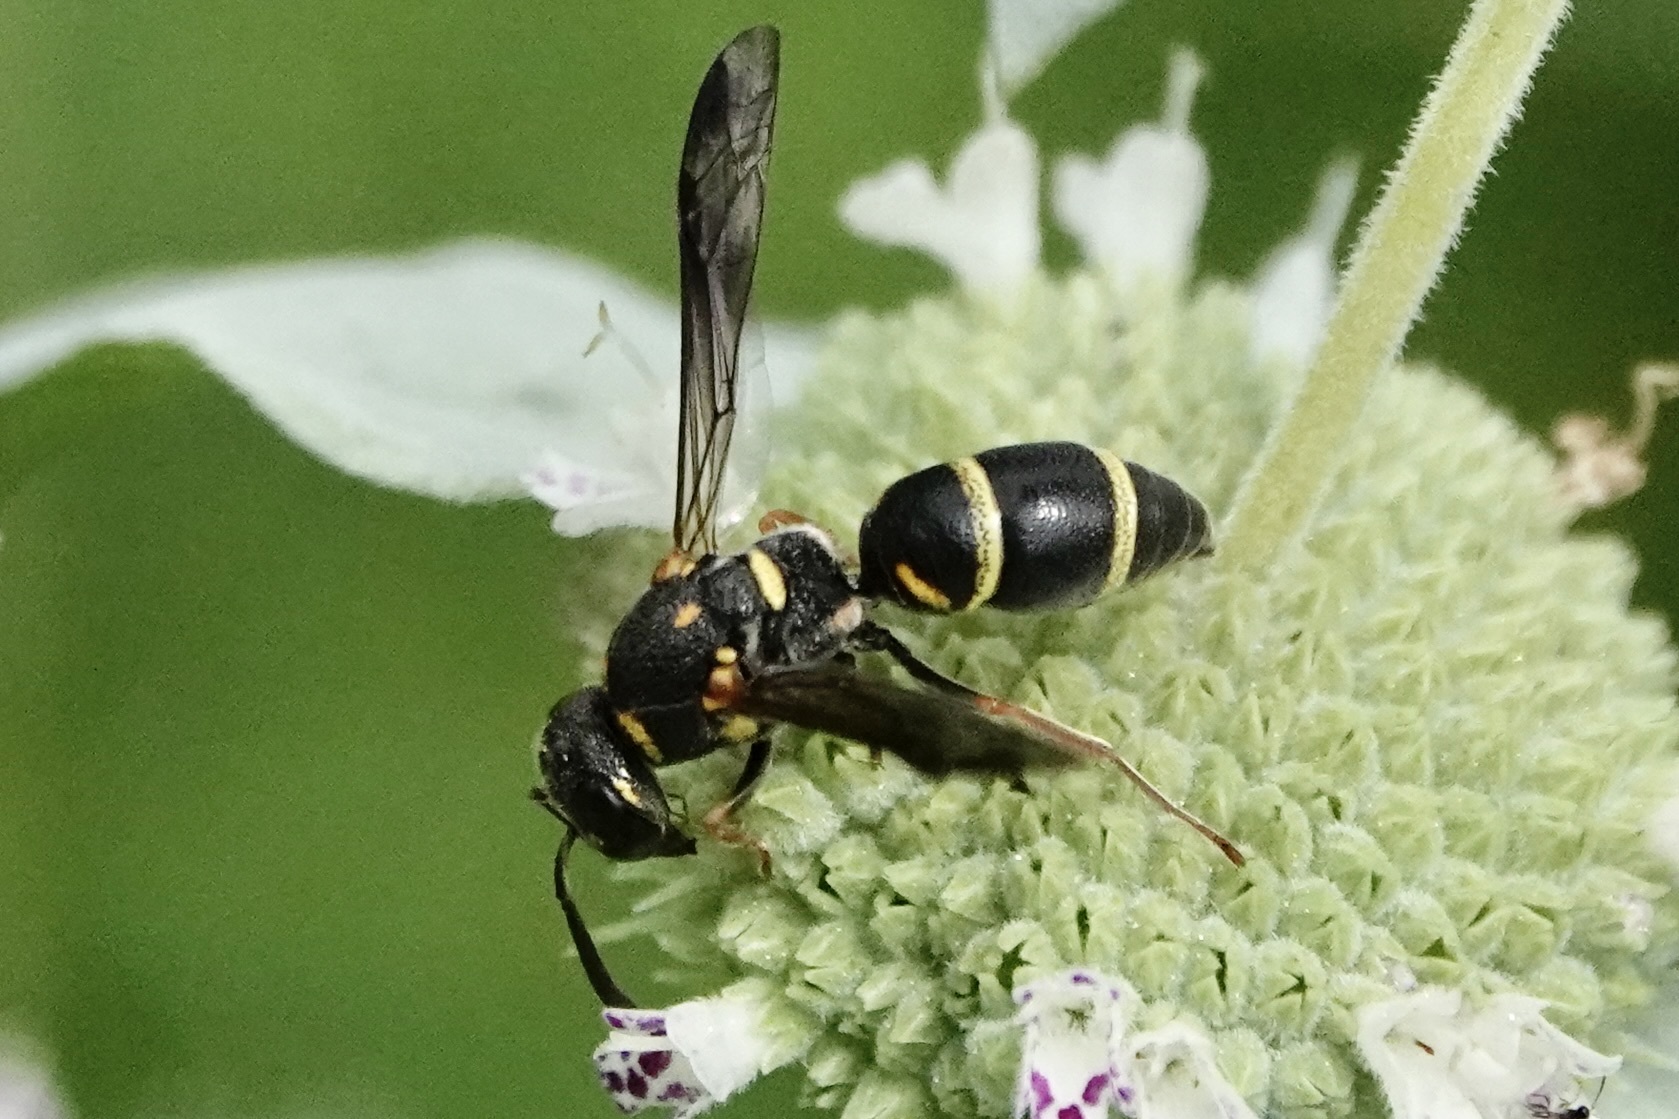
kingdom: Animalia
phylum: Arthropoda
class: Insecta
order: Hymenoptera
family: Eumenidae
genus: Parancistrocerus
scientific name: Parancistrocerus fulvipes
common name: Potter wasp
